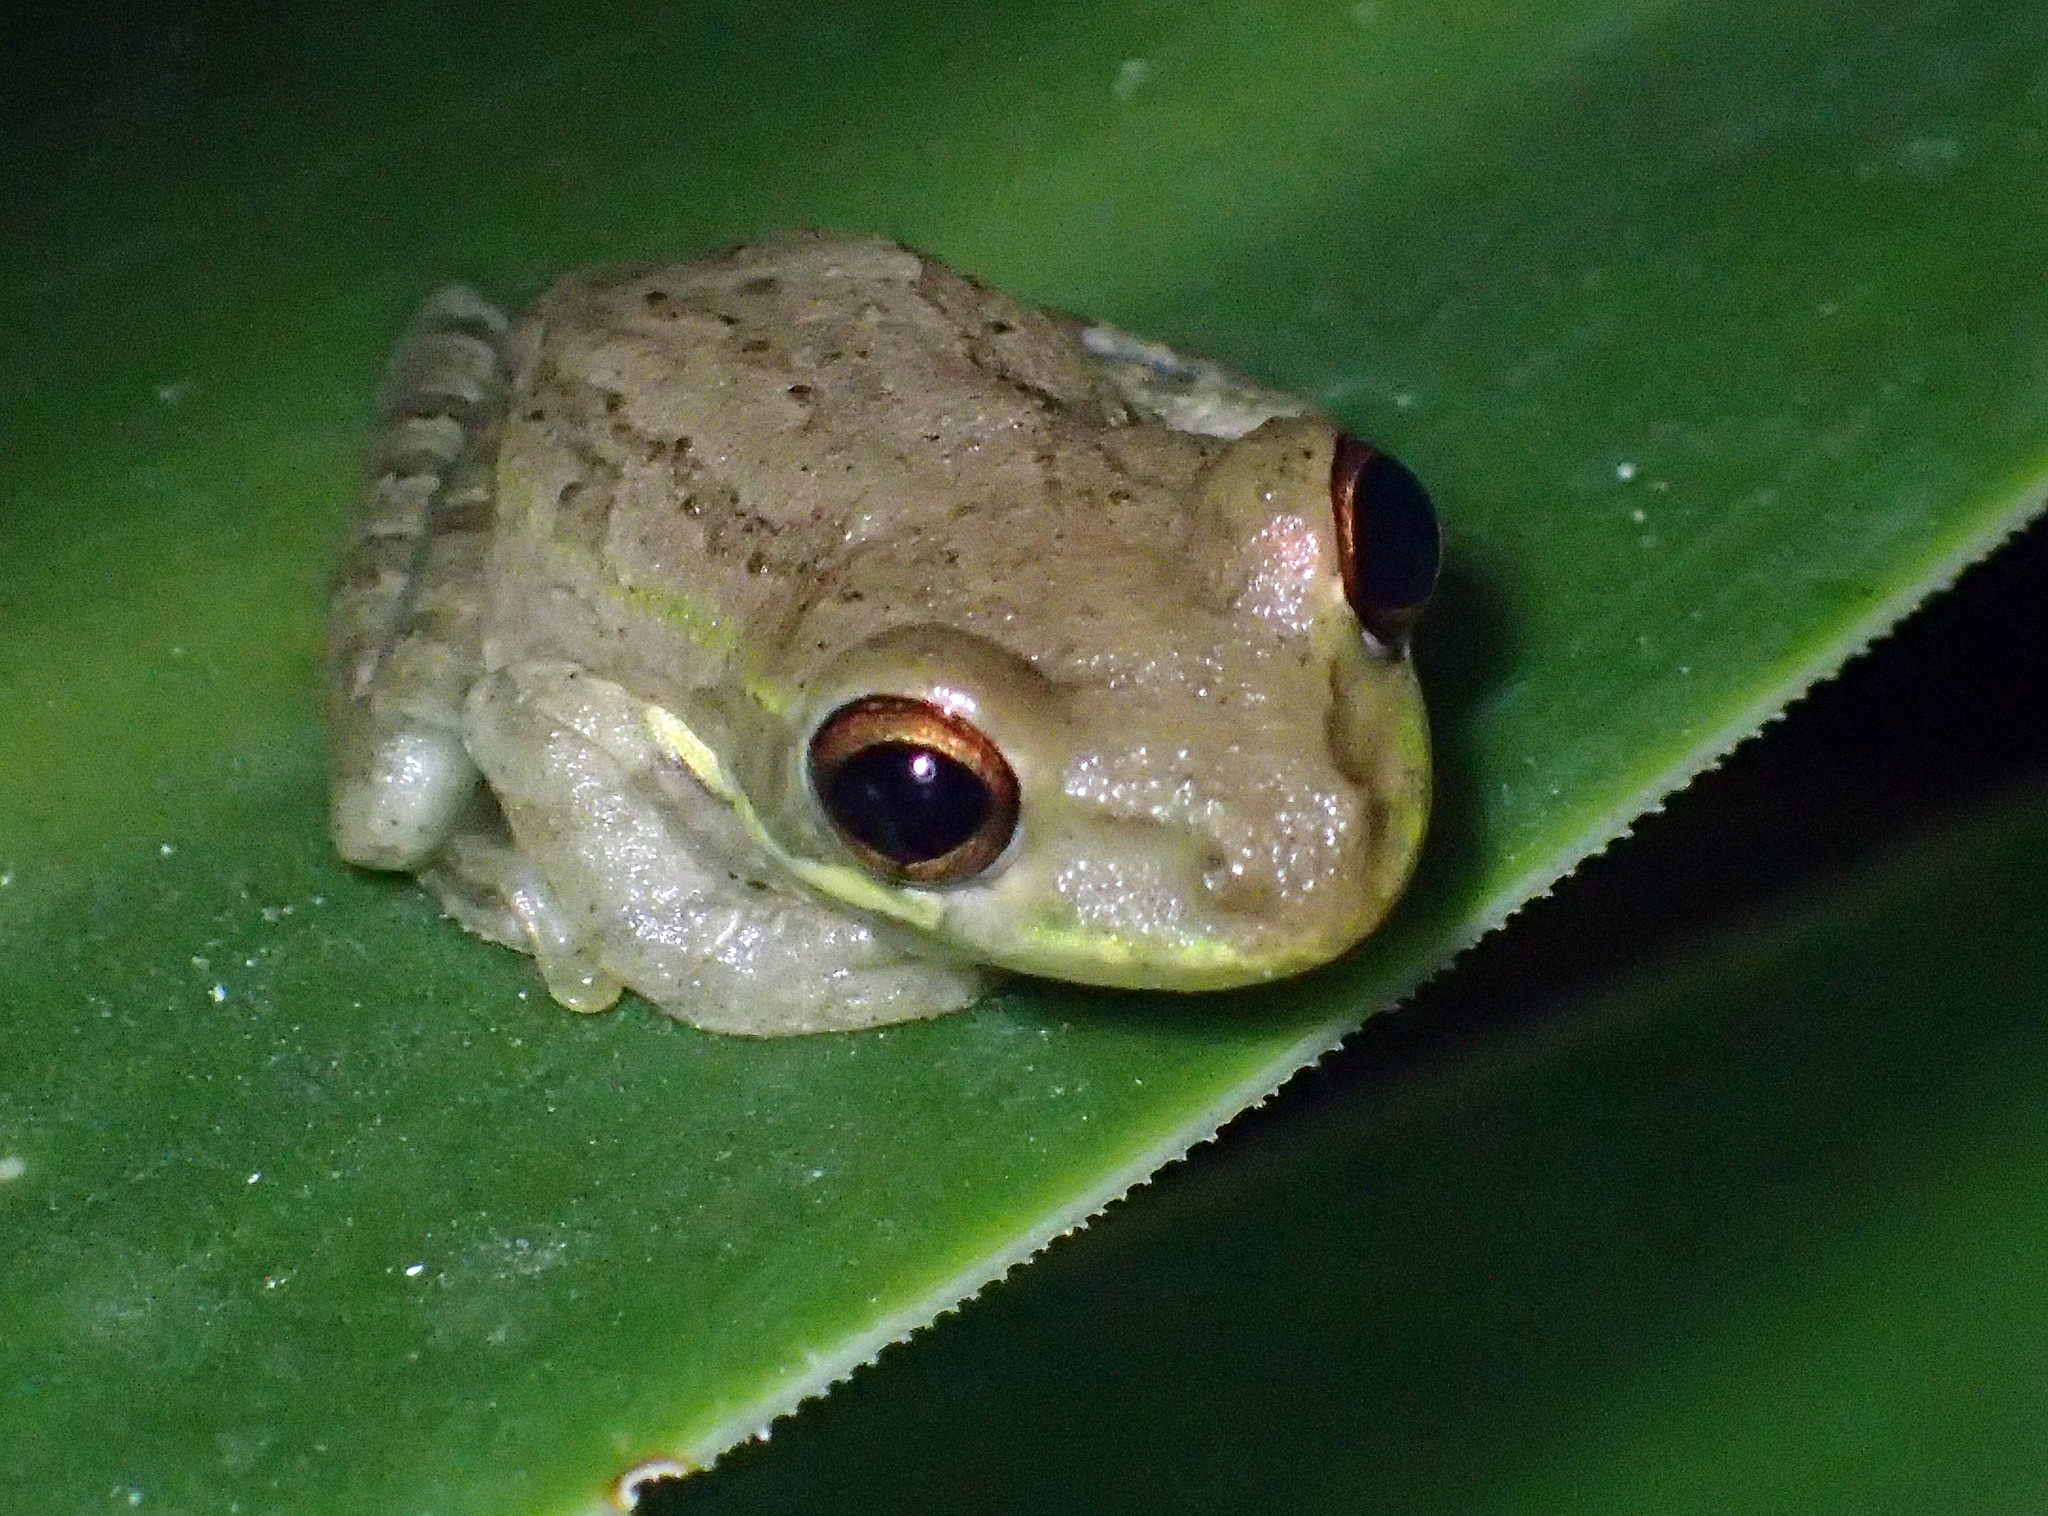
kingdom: Animalia
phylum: Chordata
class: Amphibia
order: Anura
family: Hylidae
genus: Osteopilus
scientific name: Osteopilus septentrionalis
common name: Cuban treefrog
